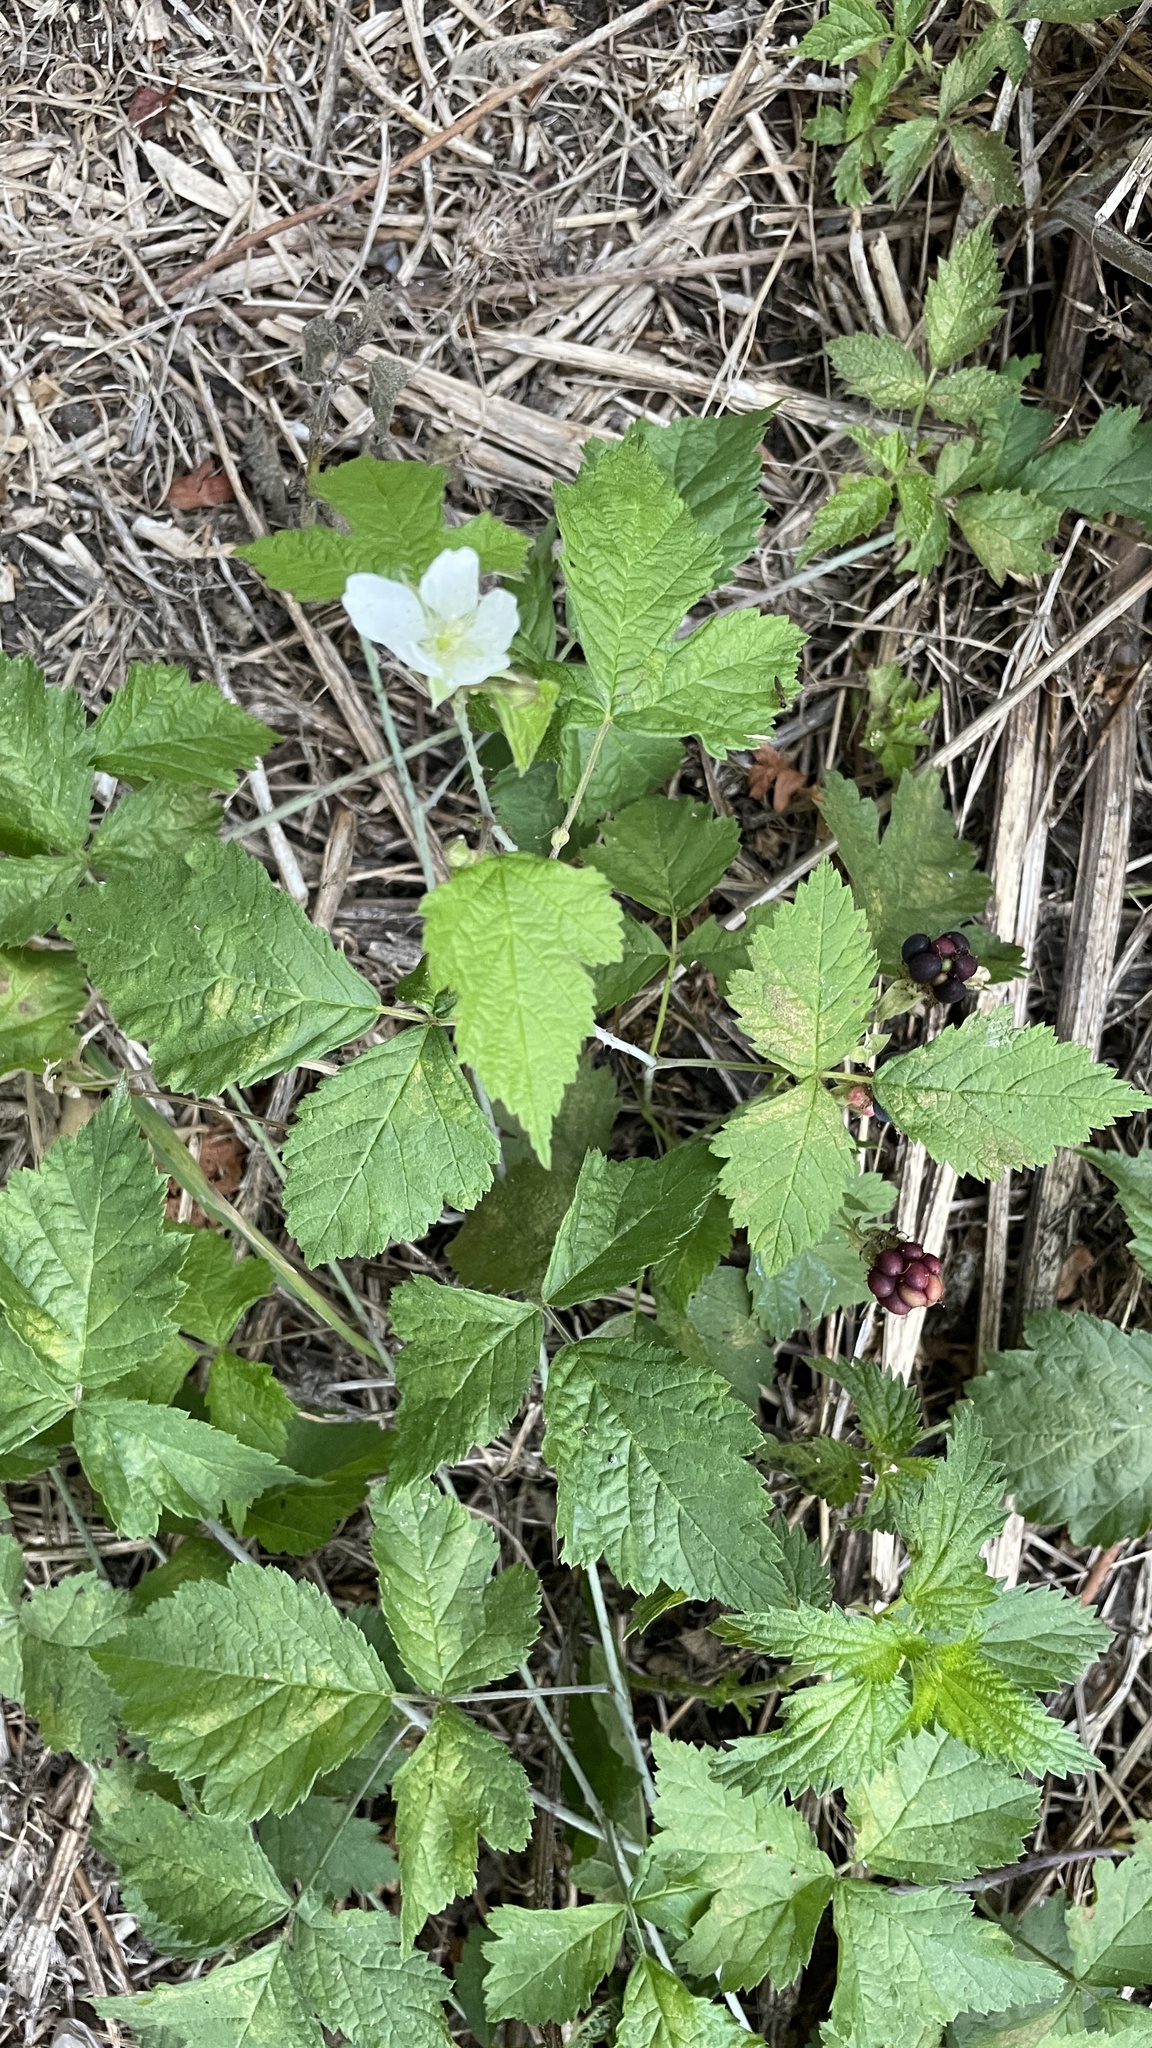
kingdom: Plantae
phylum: Tracheophyta
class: Magnoliopsida
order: Rosales
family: Rosaceae
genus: Rubus
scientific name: Rubus caesius
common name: Dewberry
